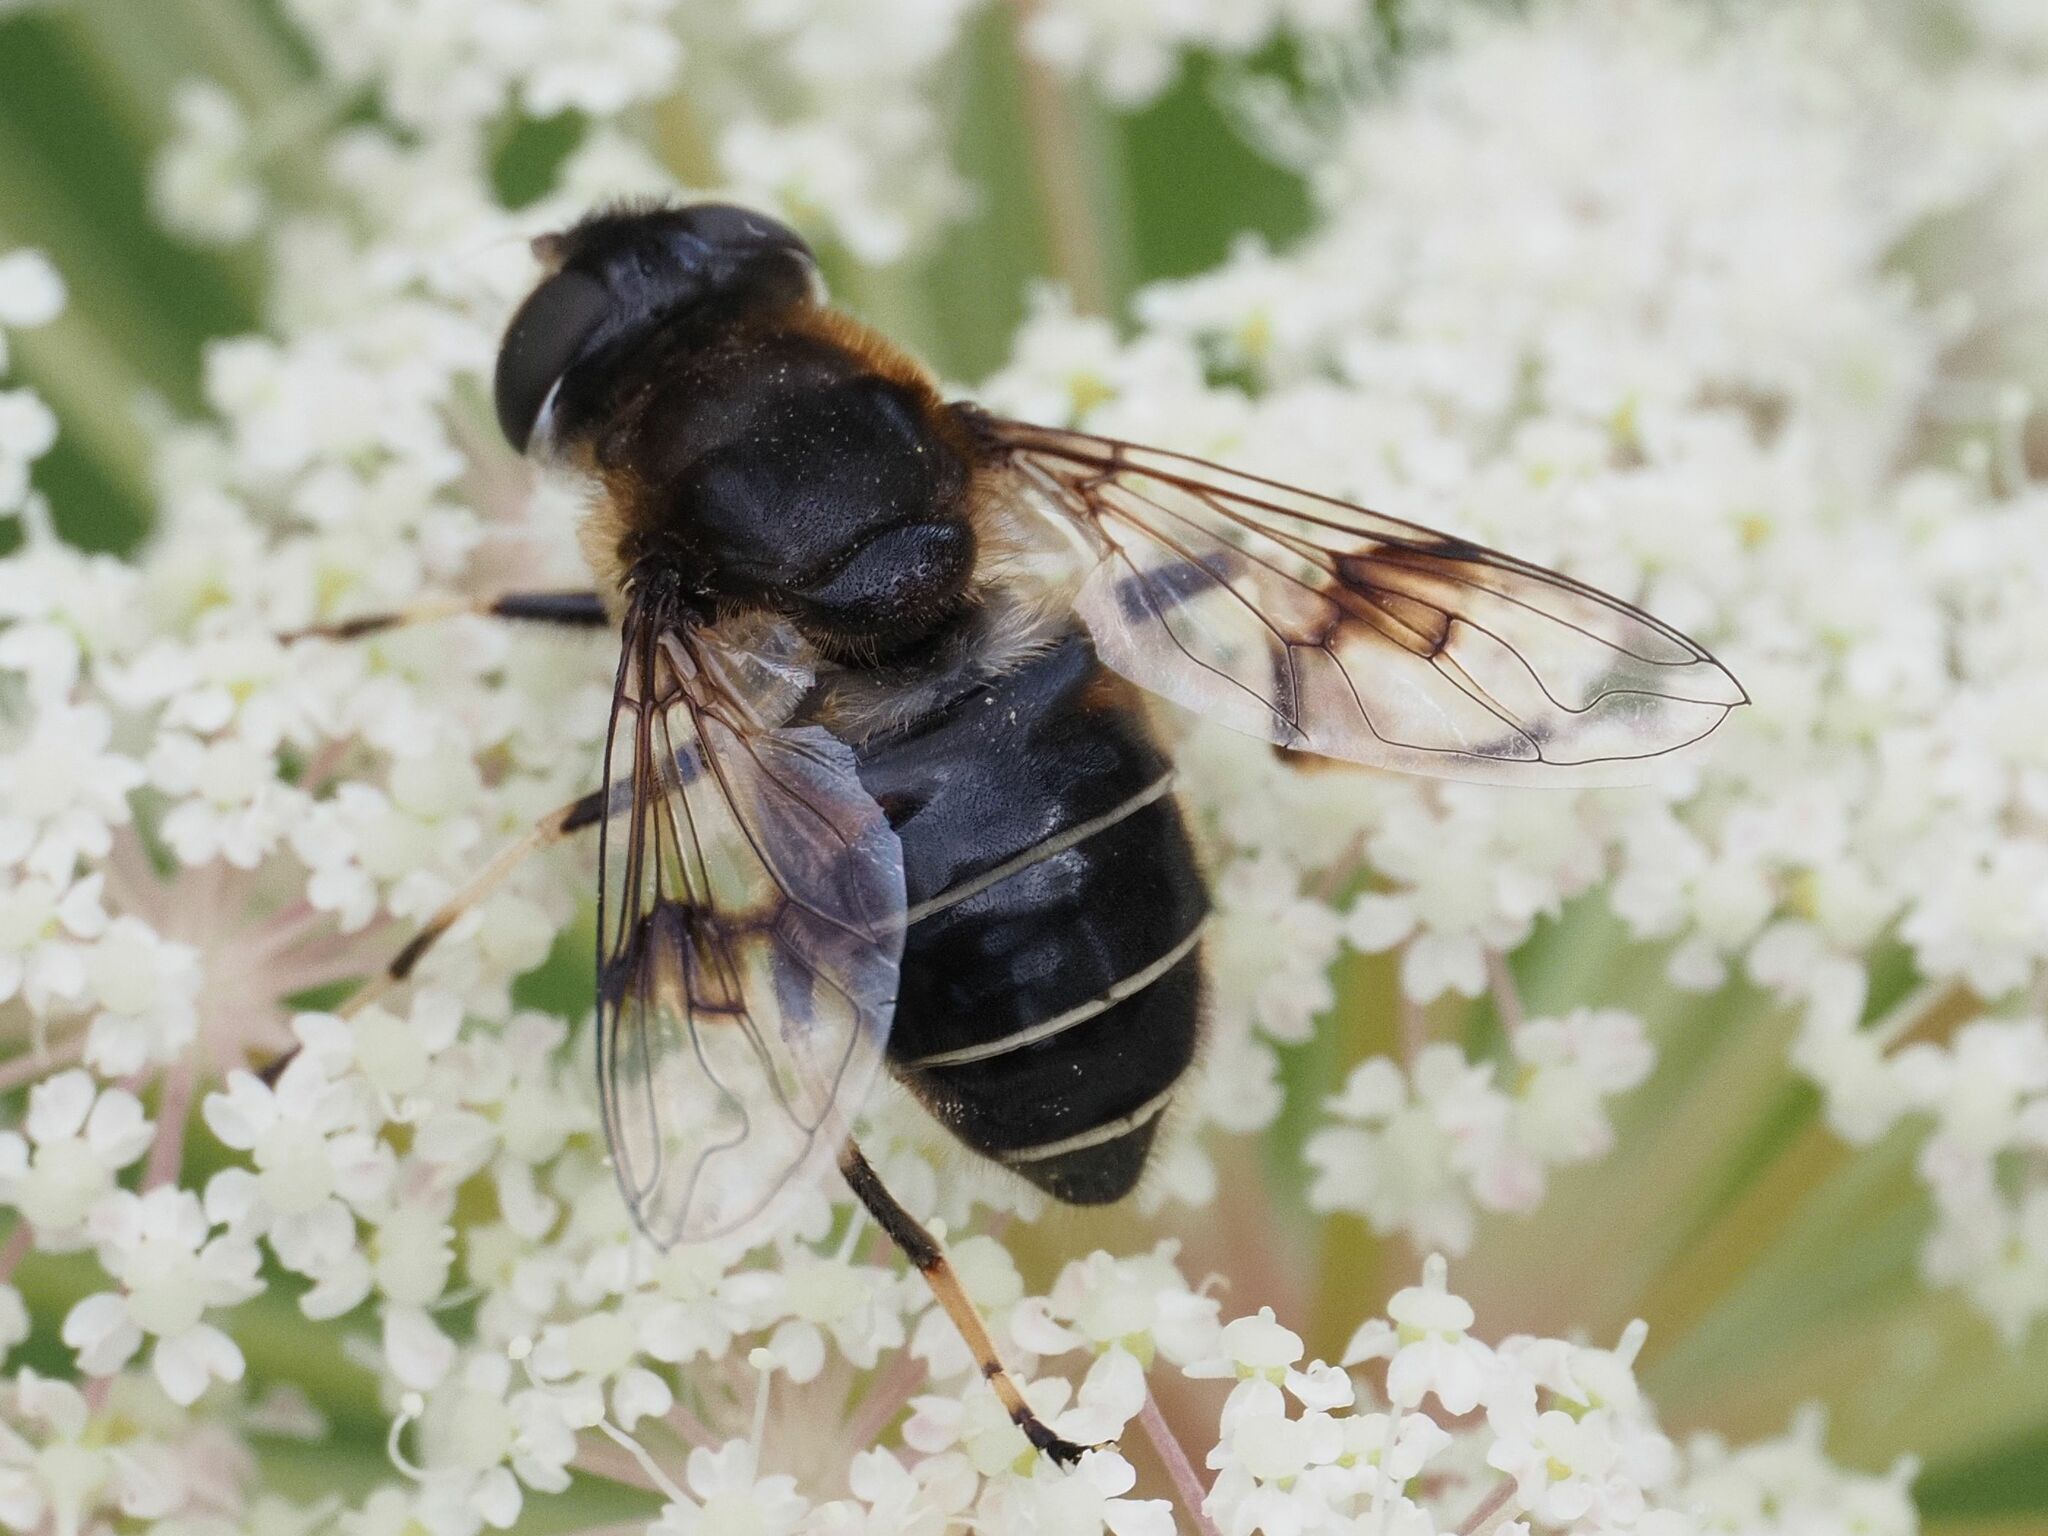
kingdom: Animalia
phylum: Arthropoda
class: Insecta
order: Diptera
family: Syrphidae
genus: Eristalis
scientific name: Eristalis rupium
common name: Hover fly
